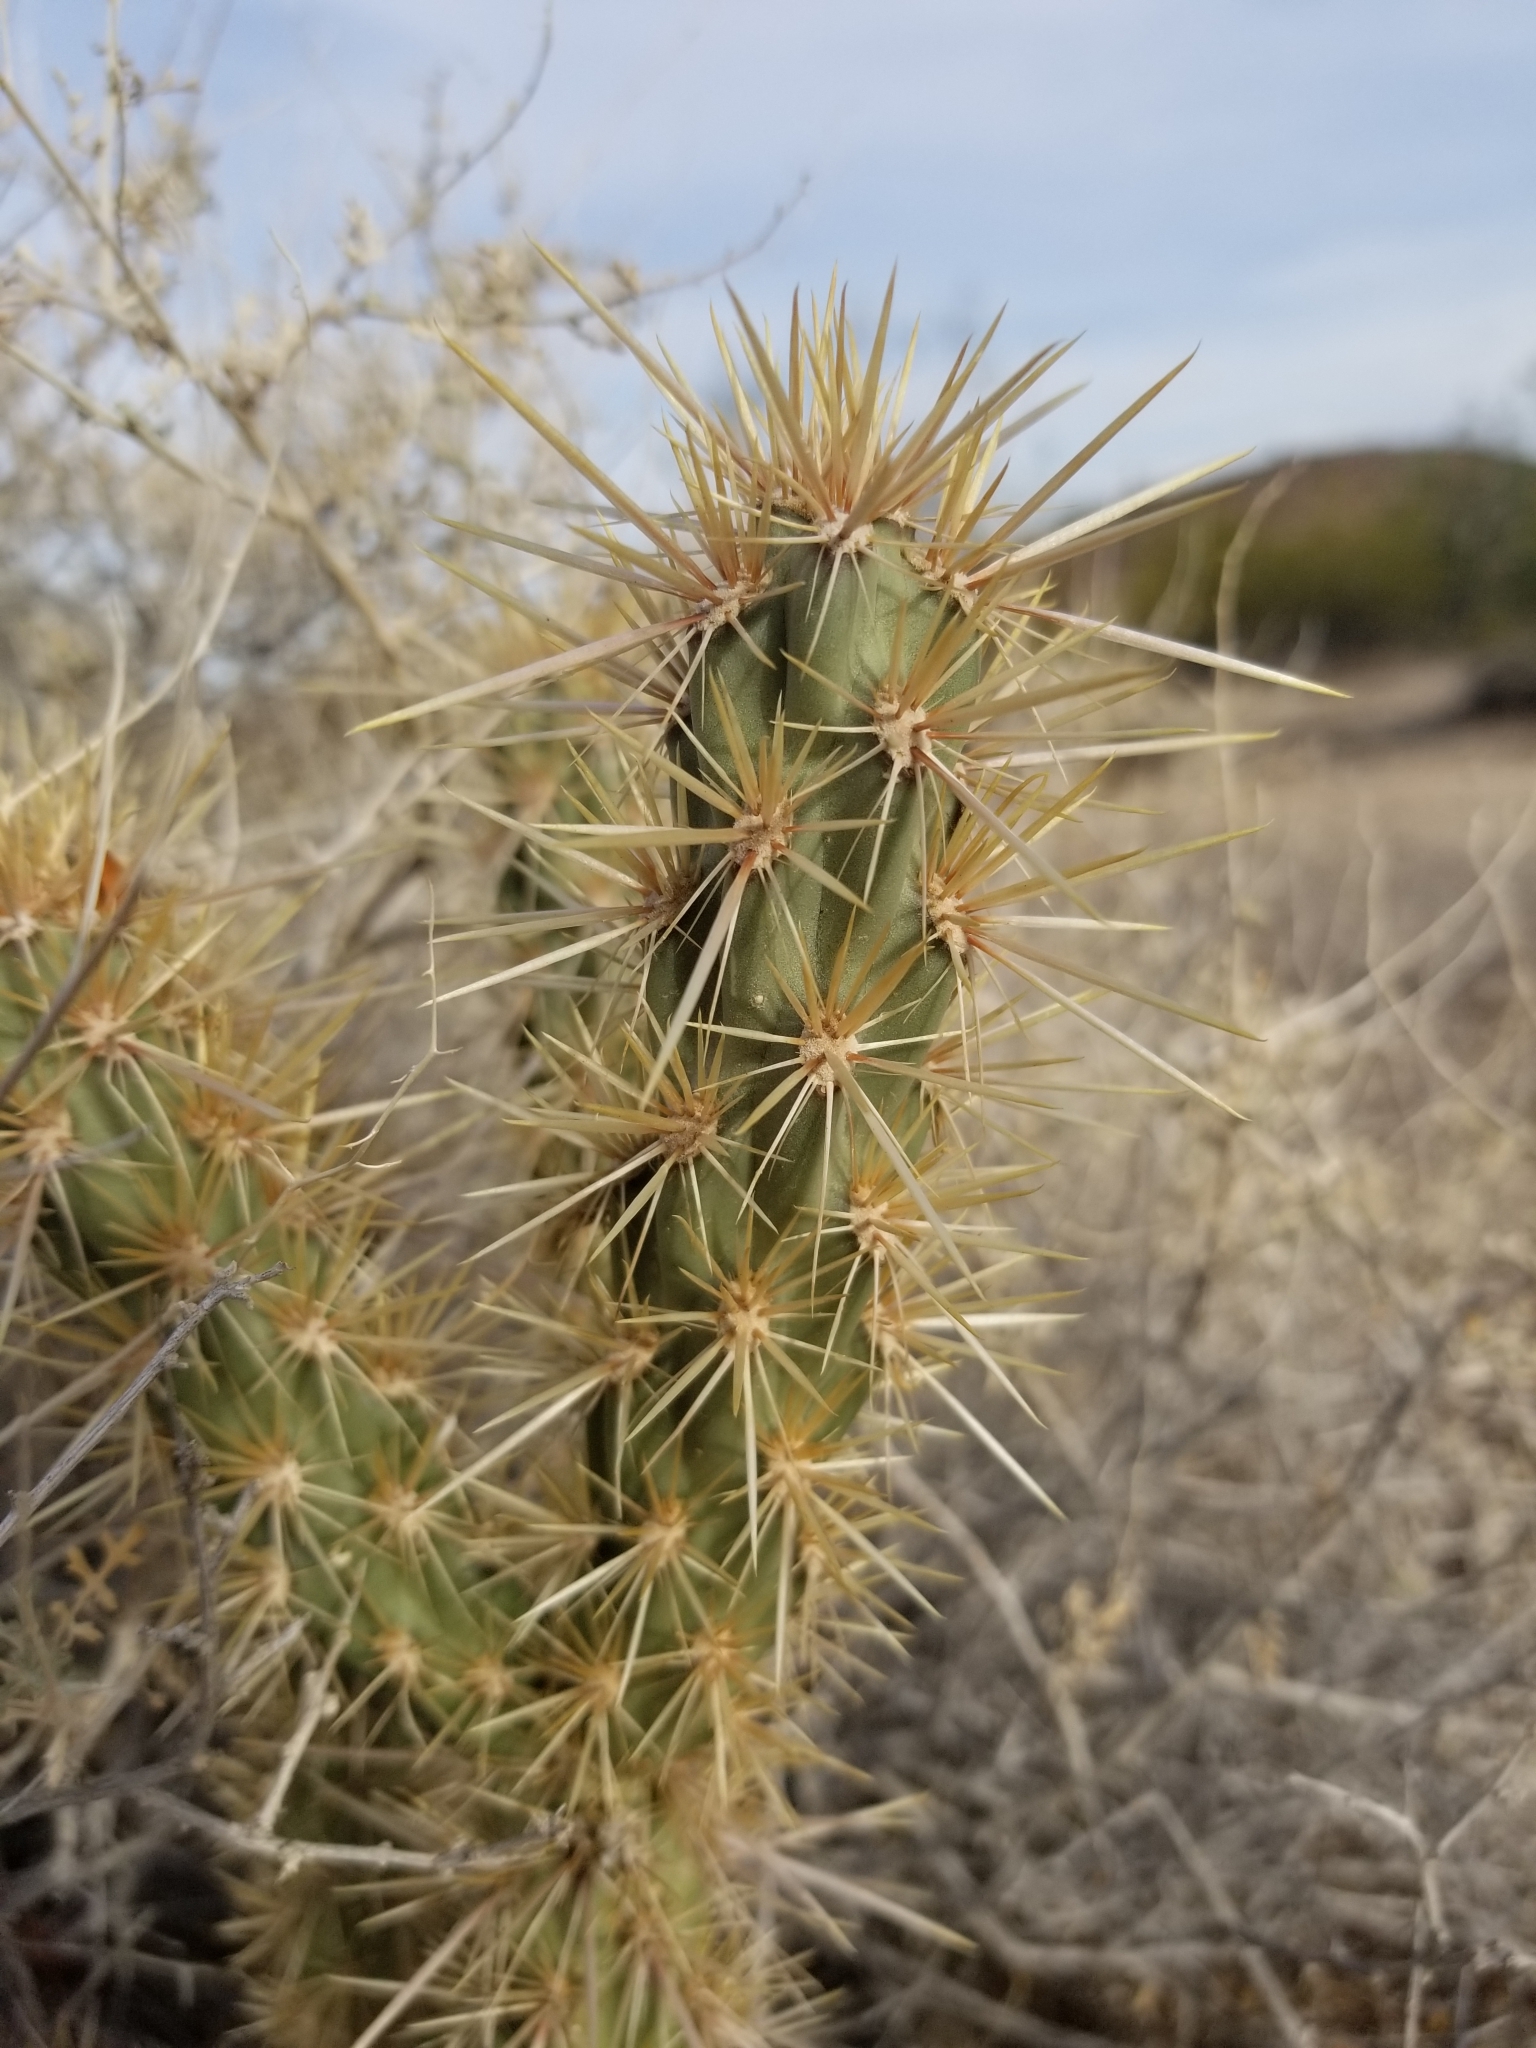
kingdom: Plantae
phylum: Tracheophyta
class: Magnoliopsida
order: Caryophyllales
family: Cactaceae
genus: Cylindropuntia
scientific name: Cylindropuntia acanthocarpa
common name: Buckhorn cholla
